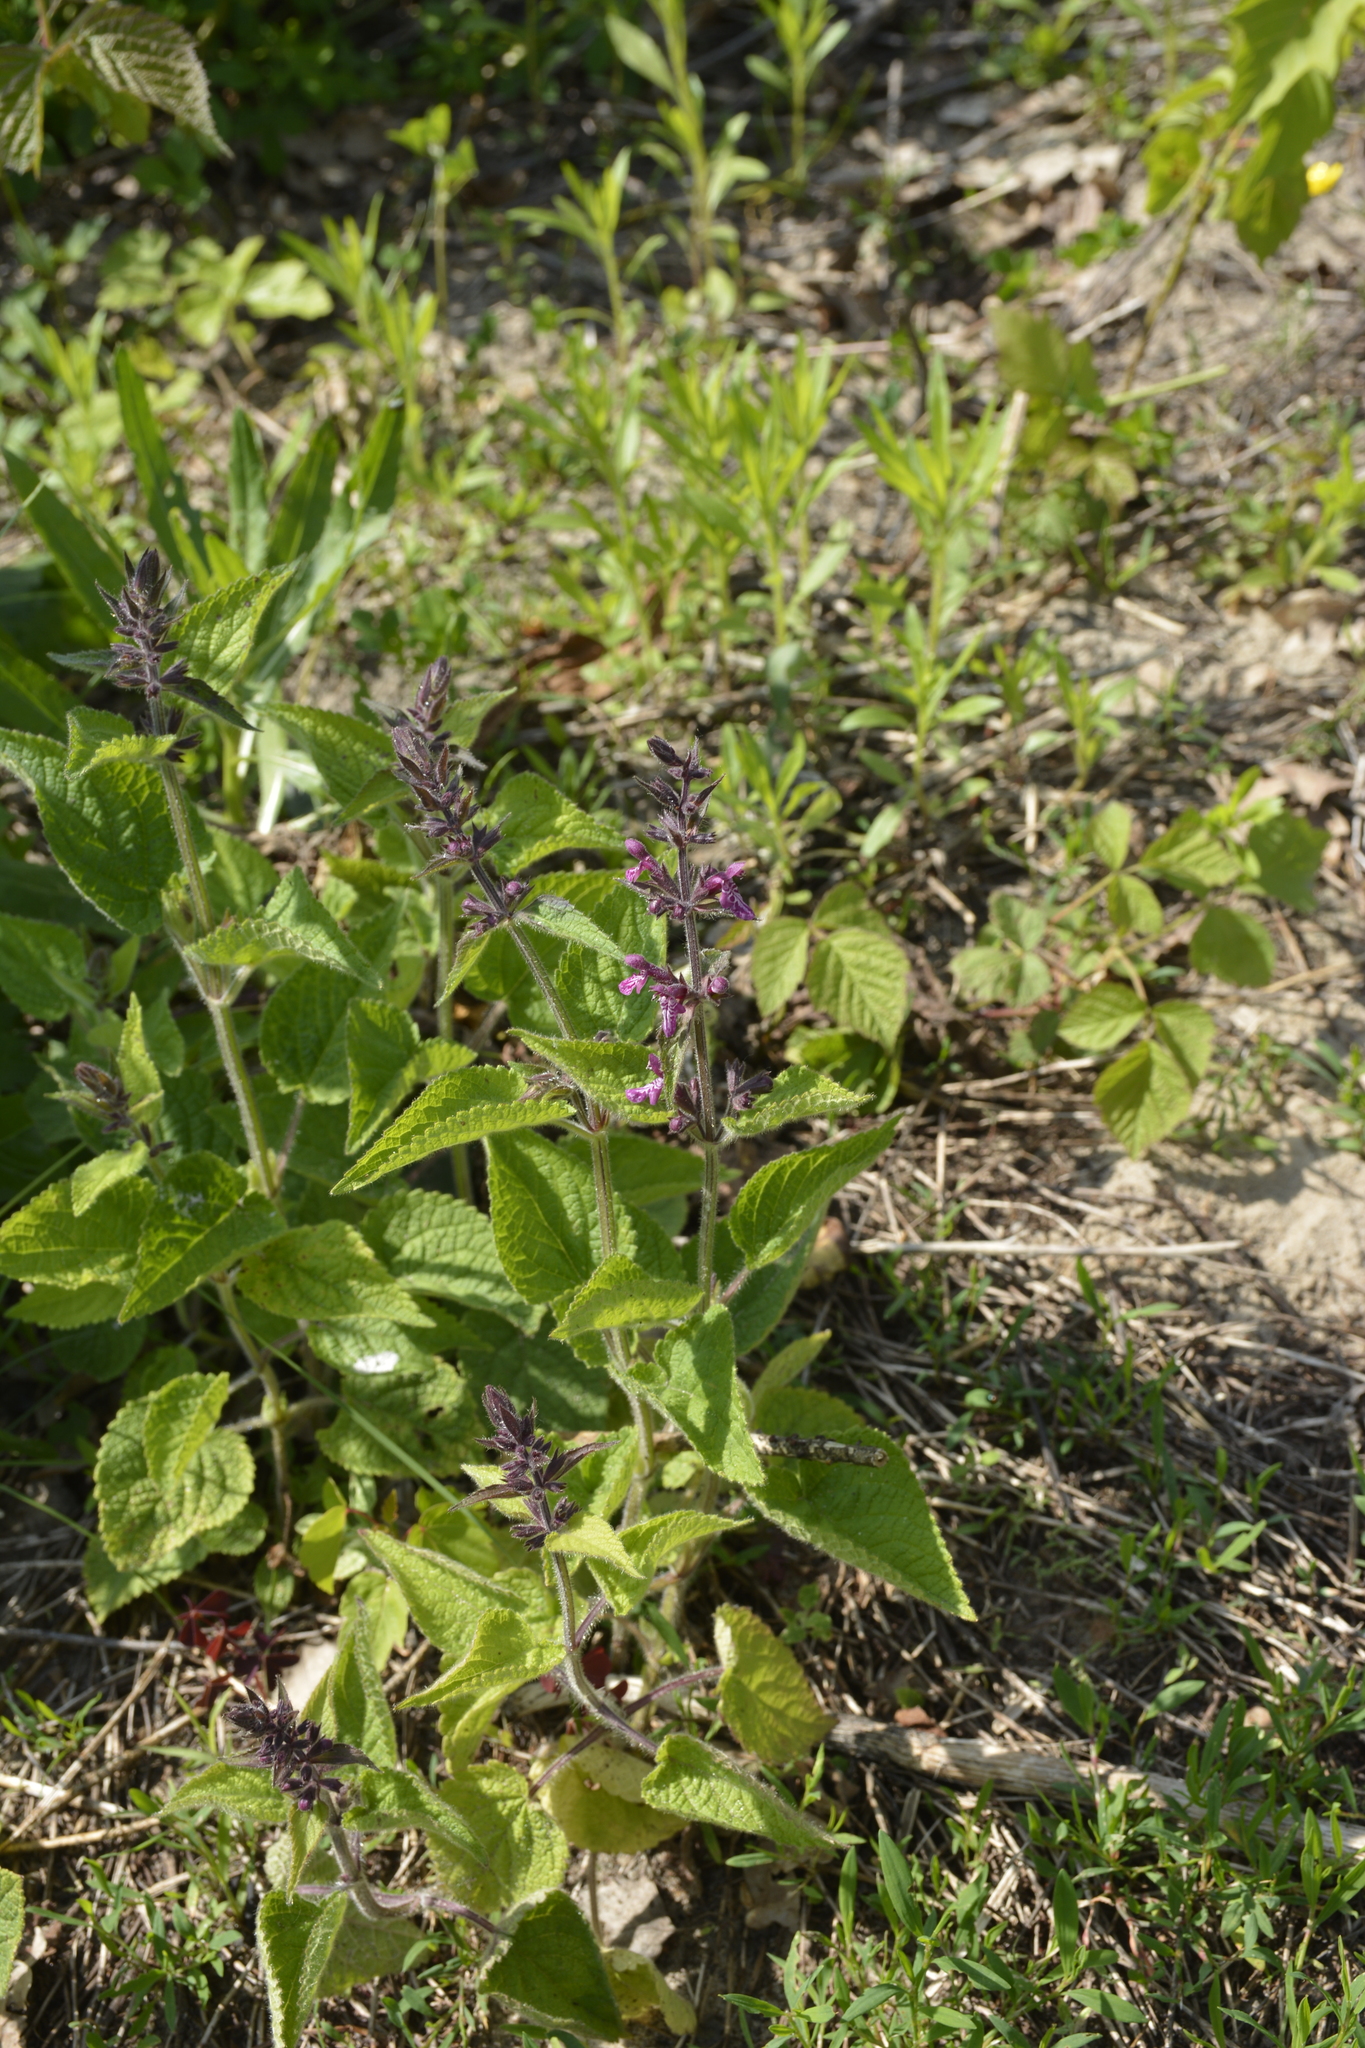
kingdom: Plantae
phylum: Tracheophyta
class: Magnoliopsida
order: Lamiales
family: Lamiaceae
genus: Stachys
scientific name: Stachys sylvatica
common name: Hedge woundwort
